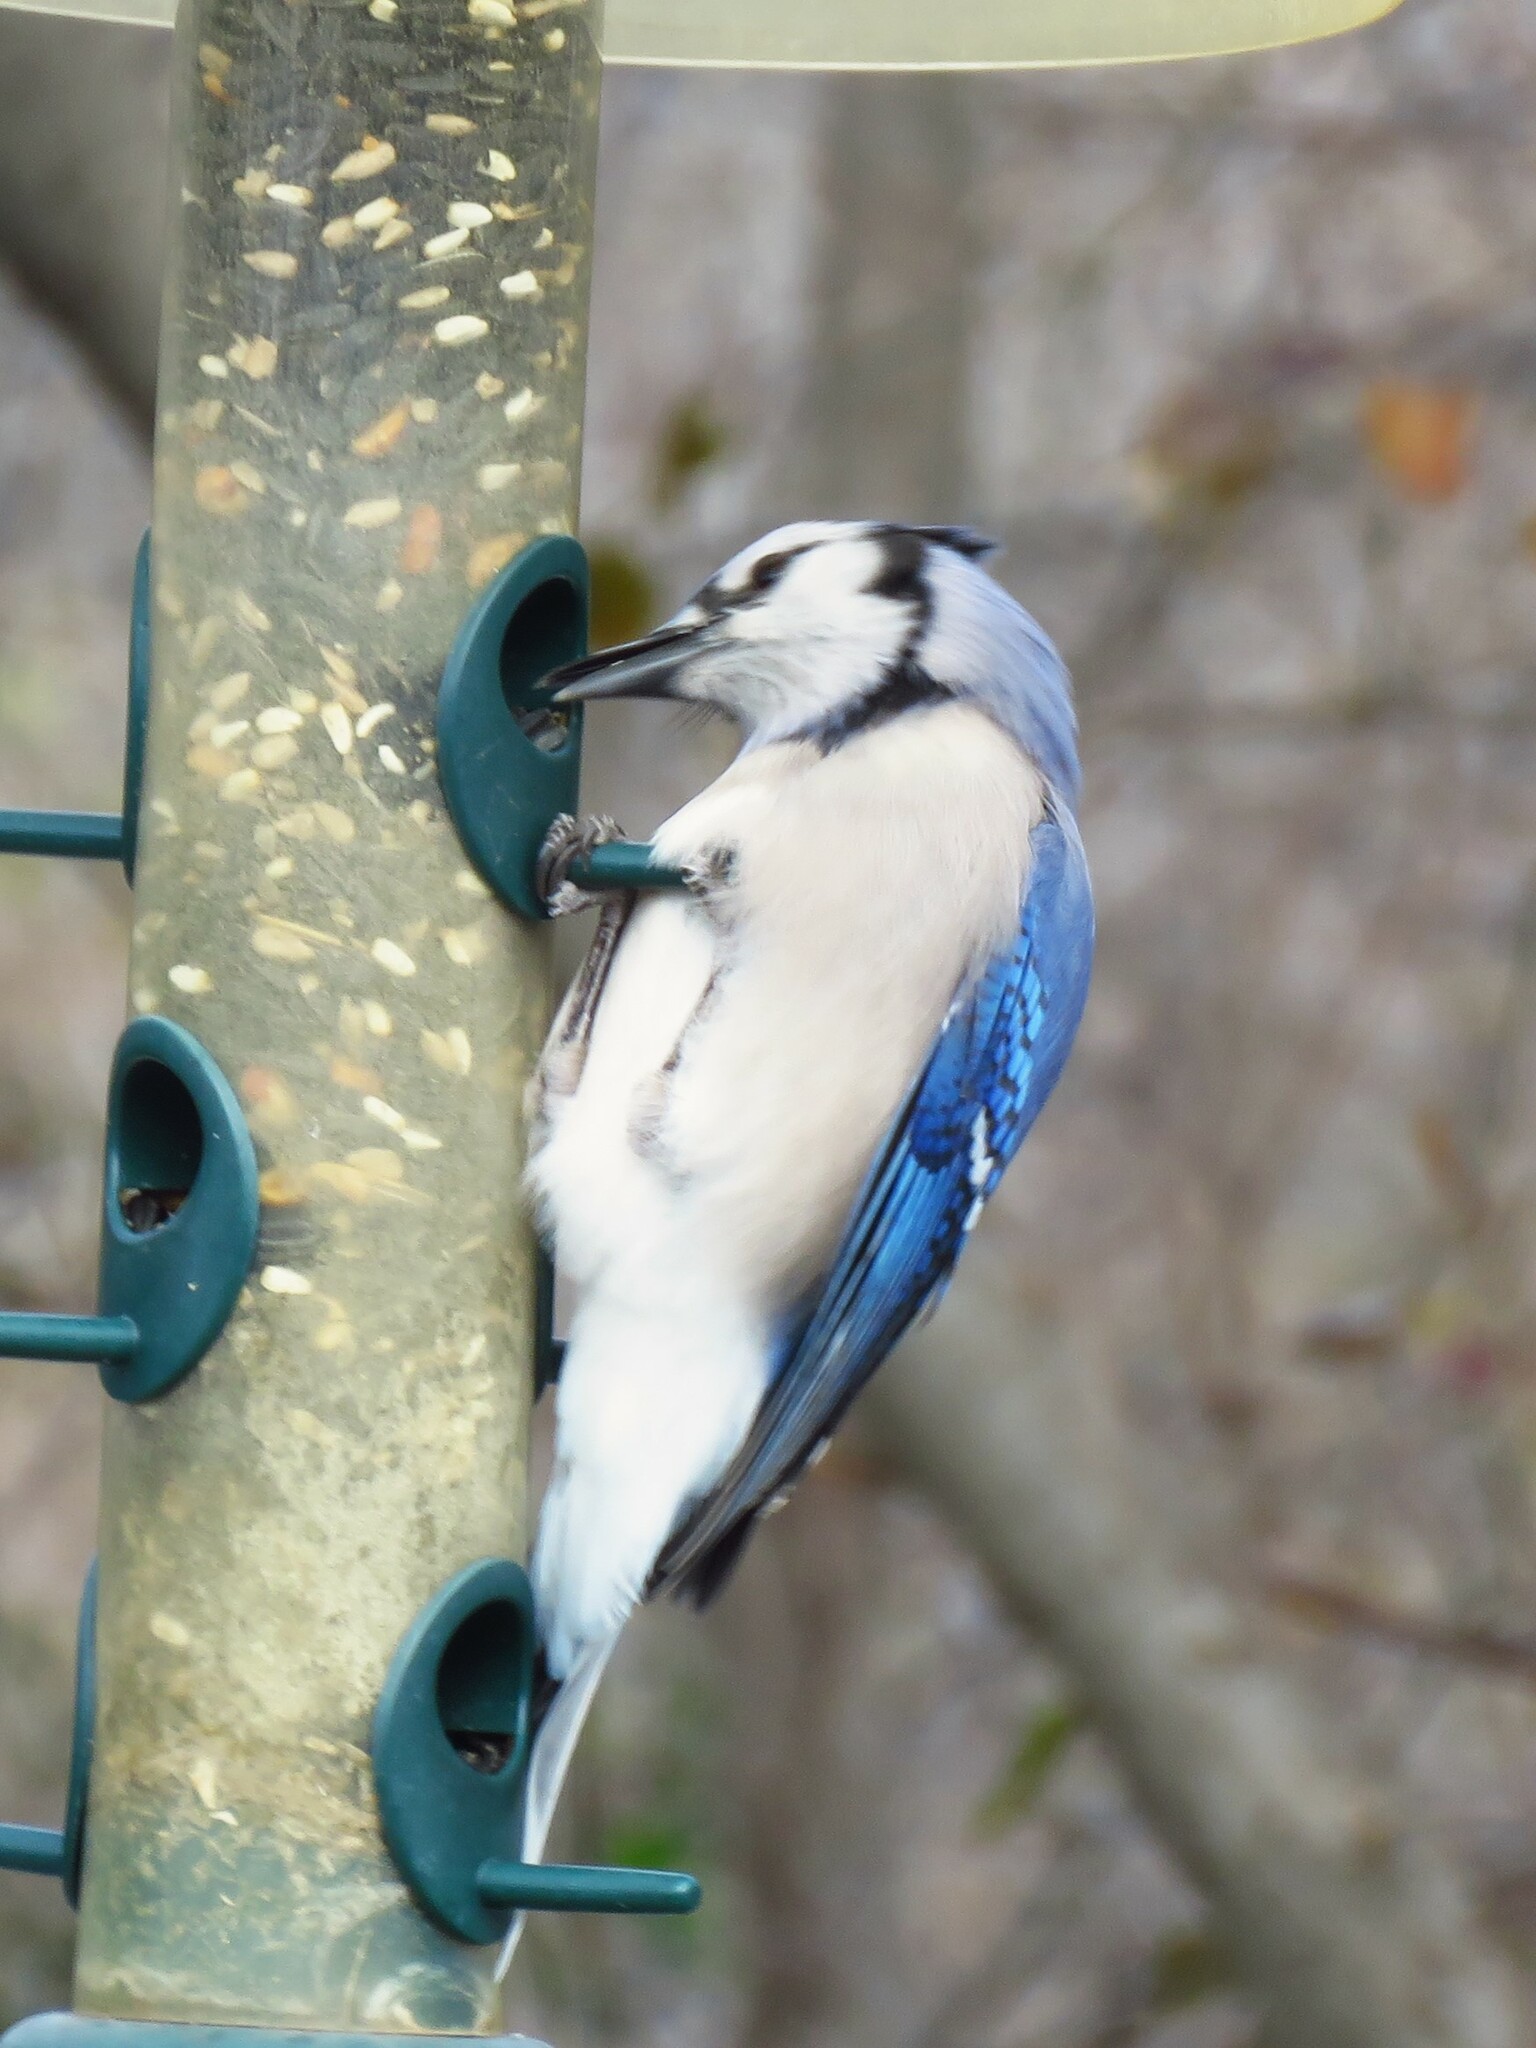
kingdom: Animalia
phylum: Chordata
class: Aves
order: Passeriformes
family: Corvidae
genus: Cyanocitta
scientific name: Cyanocitta cristata
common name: Blue jay
